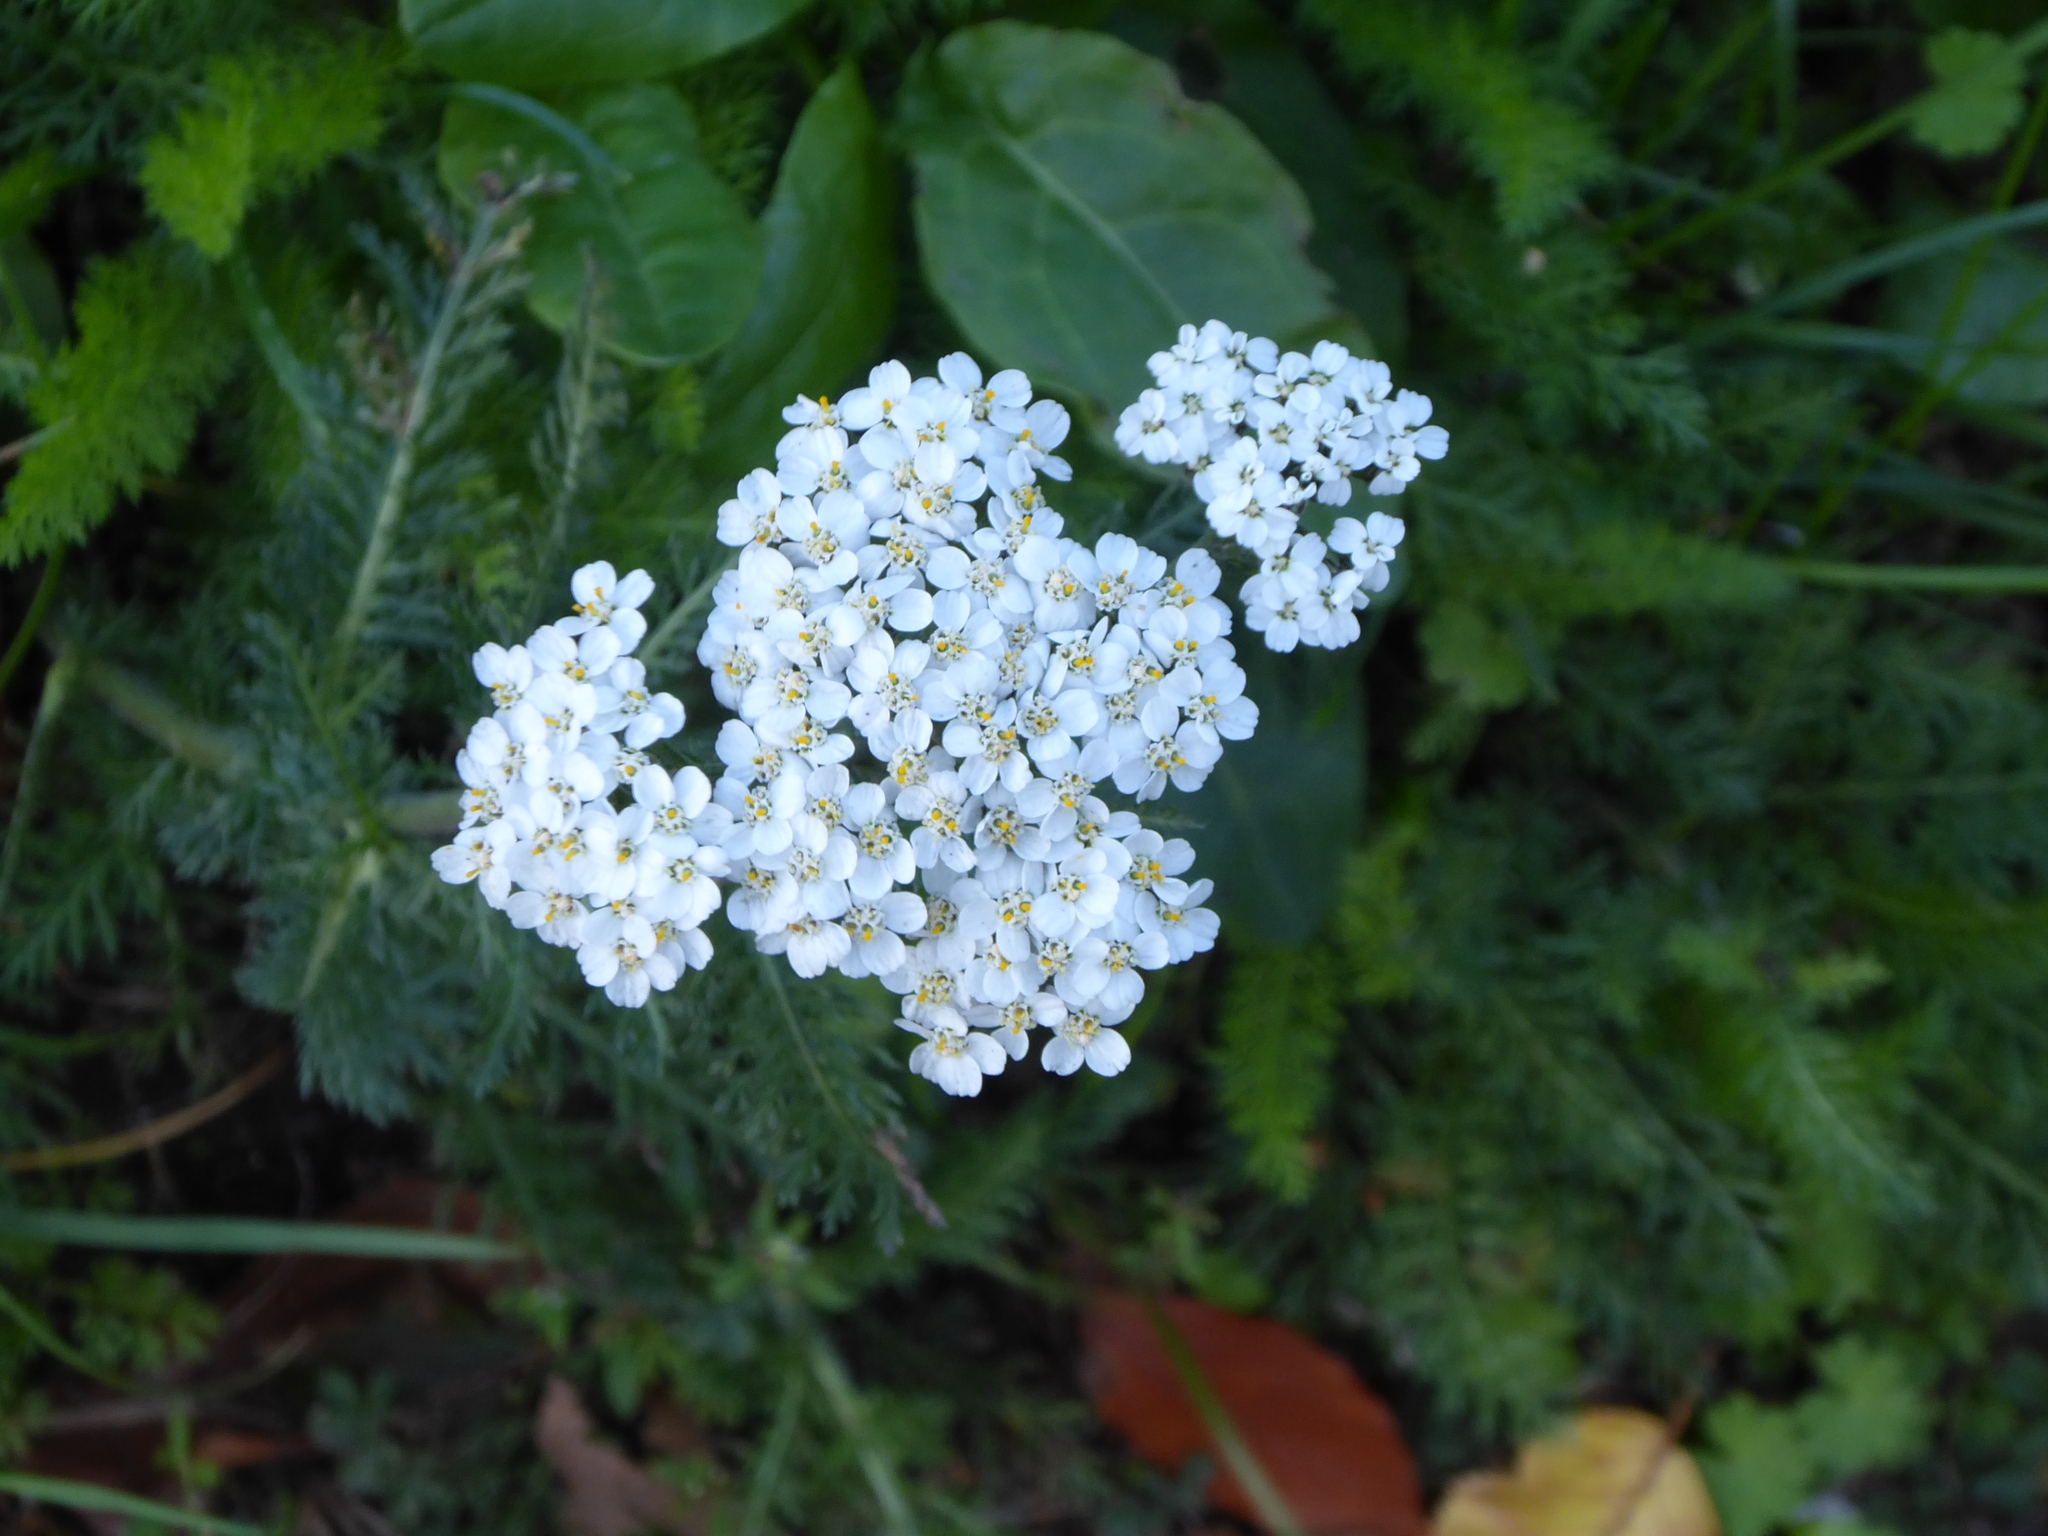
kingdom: Plantae
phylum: Tracheophyta
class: Magnoliopsida
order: Asterales
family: Asteraceae
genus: Achillea
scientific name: Achillea millefolium
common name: Yarrow
